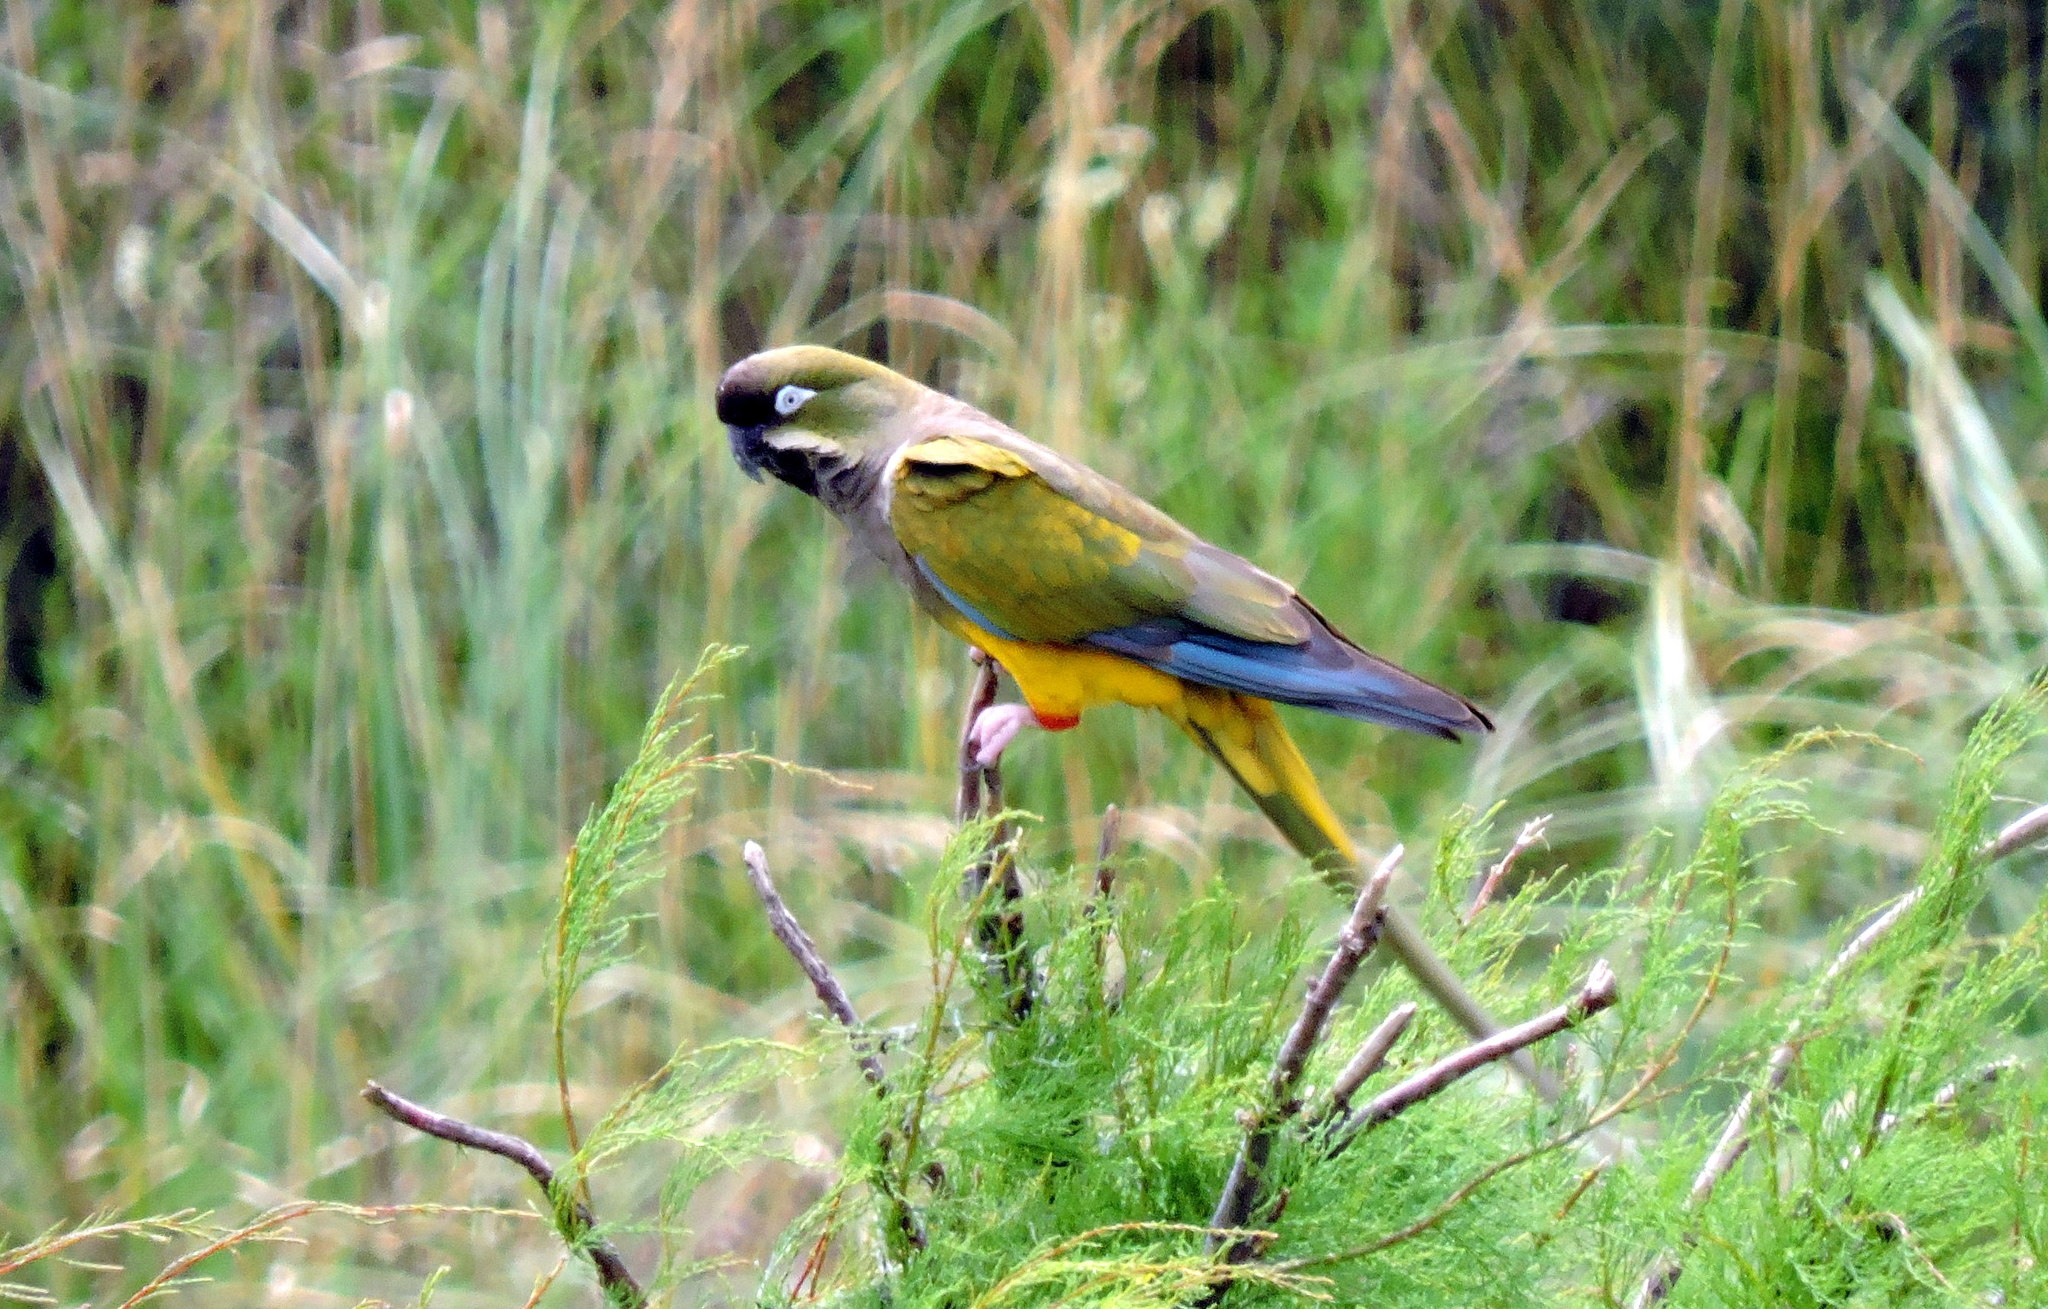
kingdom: Animalia
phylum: Chordata
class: Aves
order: Psittaciformes
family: Psittacidae
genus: Cyanoliseus
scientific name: Cyanoliseus patagonus
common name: Burrowing parrot
